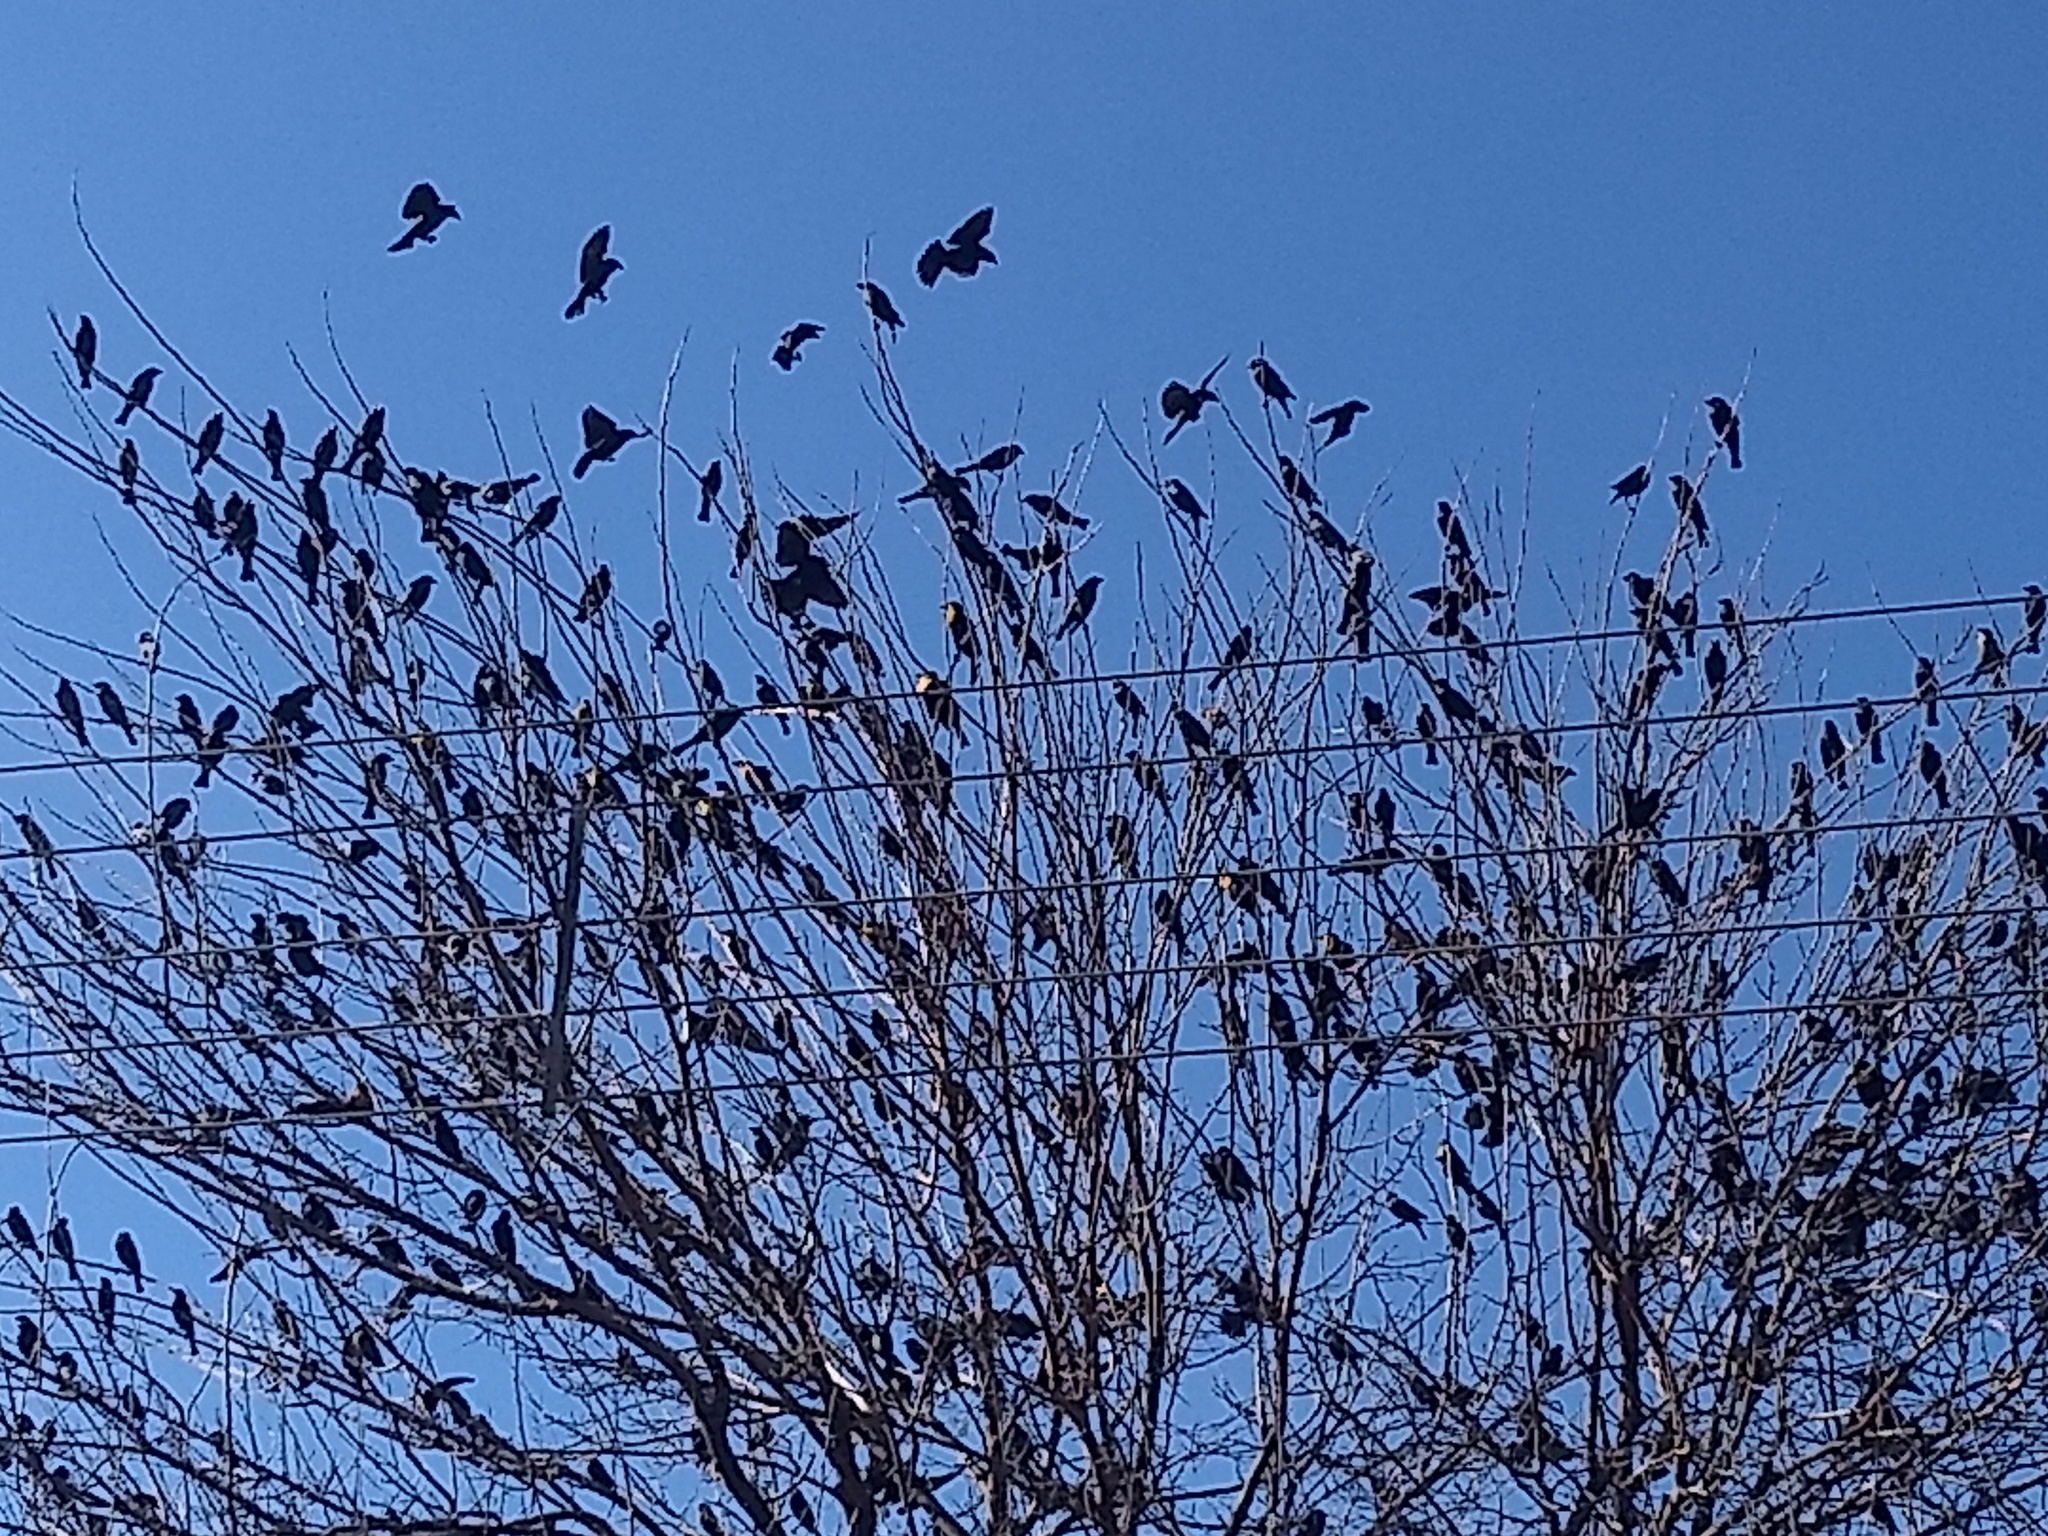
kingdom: Animalia
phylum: Chordata
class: Aves
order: Passeriformes
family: Icteridae
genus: Xanthocephalus
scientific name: Xanthocephalus xanthocephalus
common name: Yellow-headed blackbird
